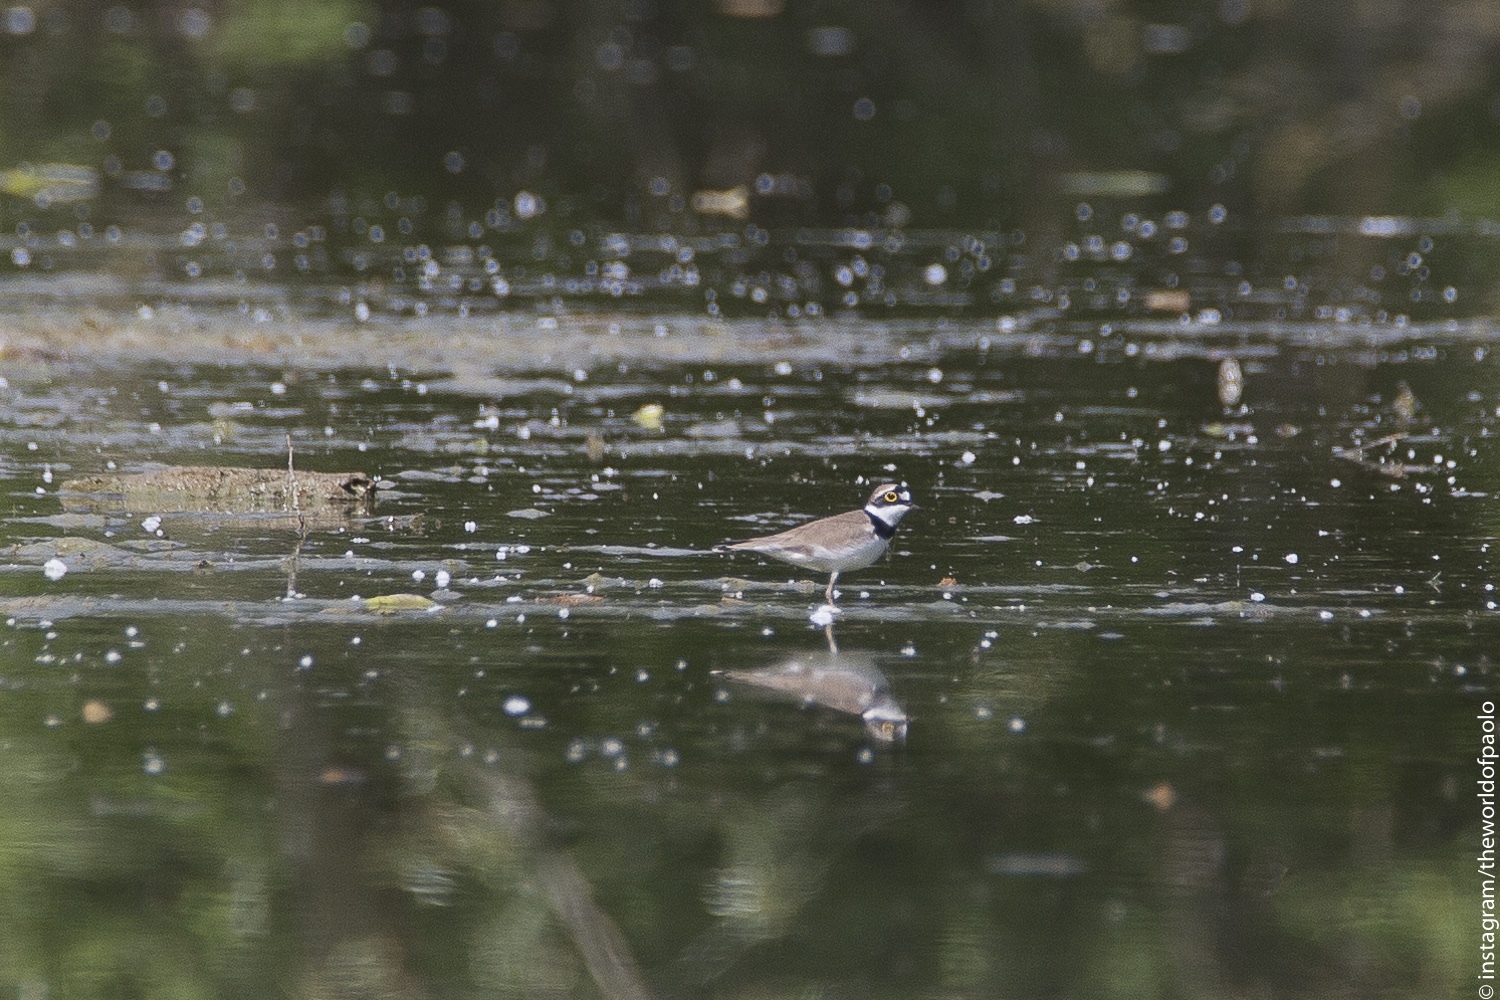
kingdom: Animalia
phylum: Chordata
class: Aves
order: Charadriiformes
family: Charadriidae
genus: Charadrius
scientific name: Charadrius dubius
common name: Little ringed plover
